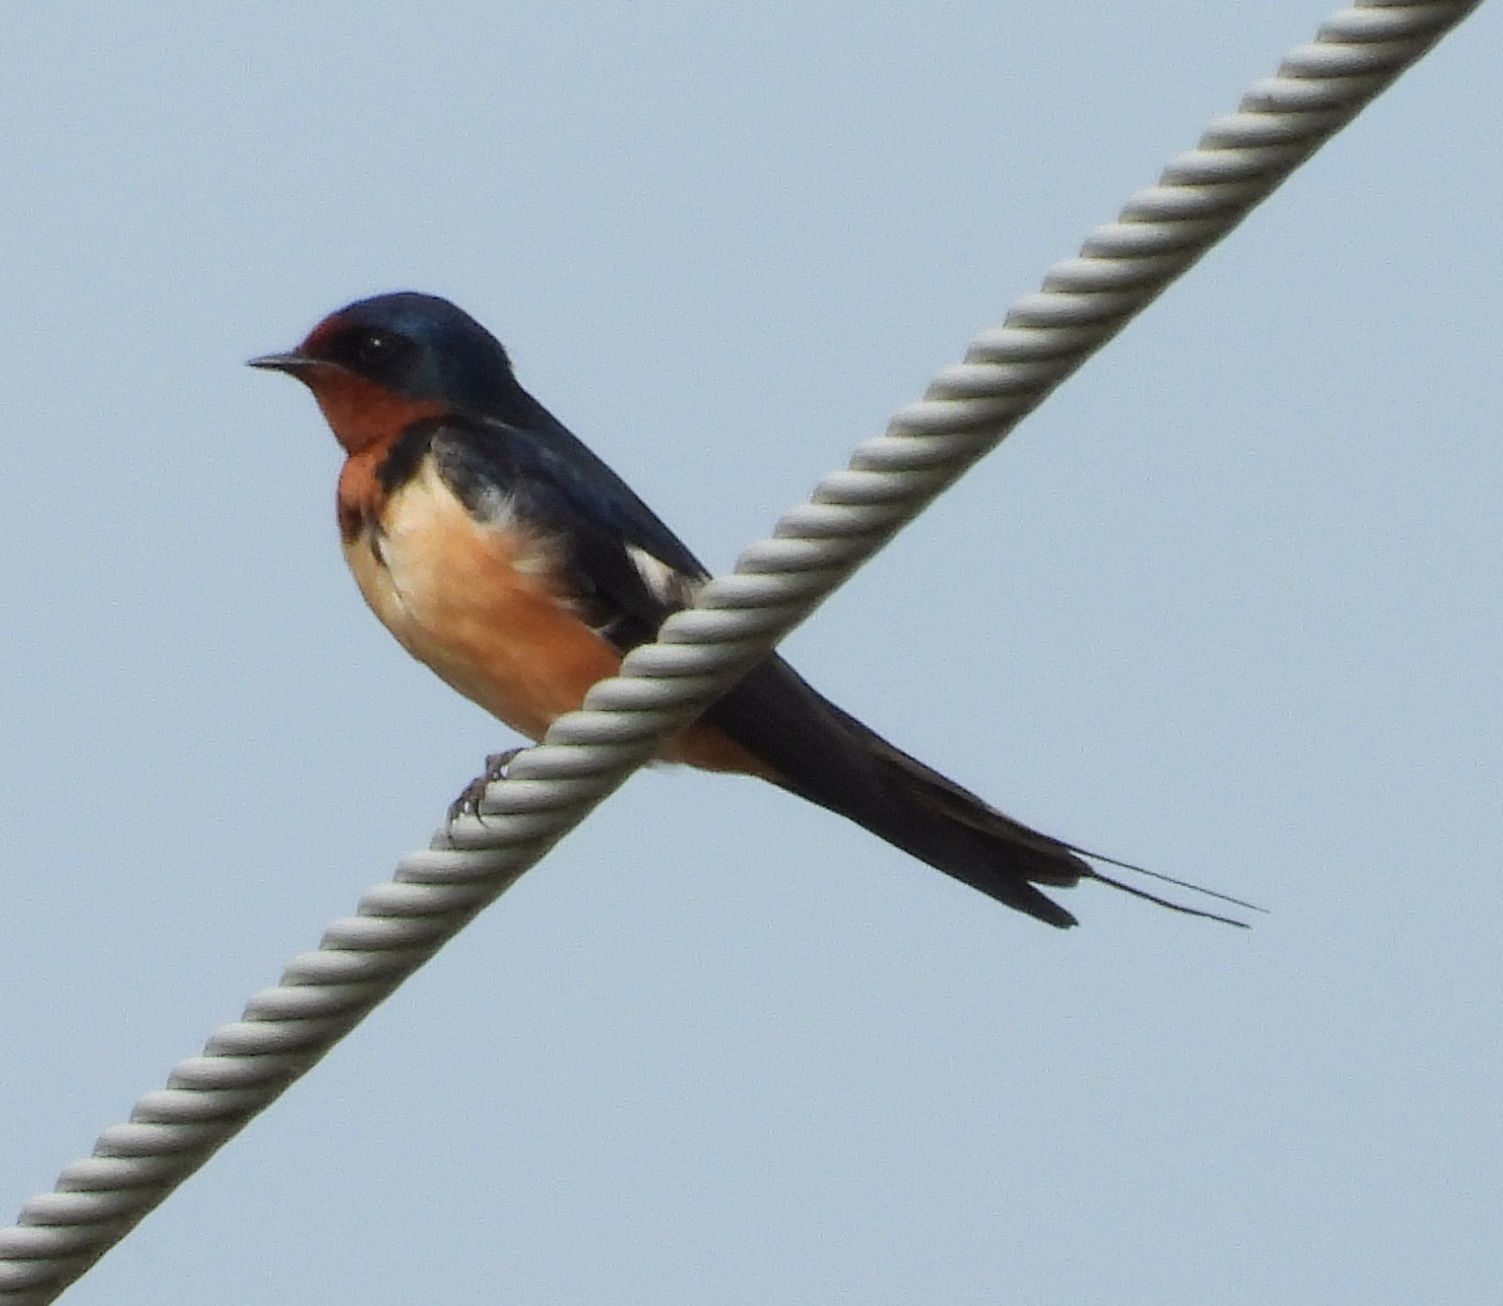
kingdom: Animalia
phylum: Chordata
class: Aves
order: Passeriformes
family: Hirundinidae
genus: Hirundo
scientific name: Hirundo rustica
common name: Barn swallow
